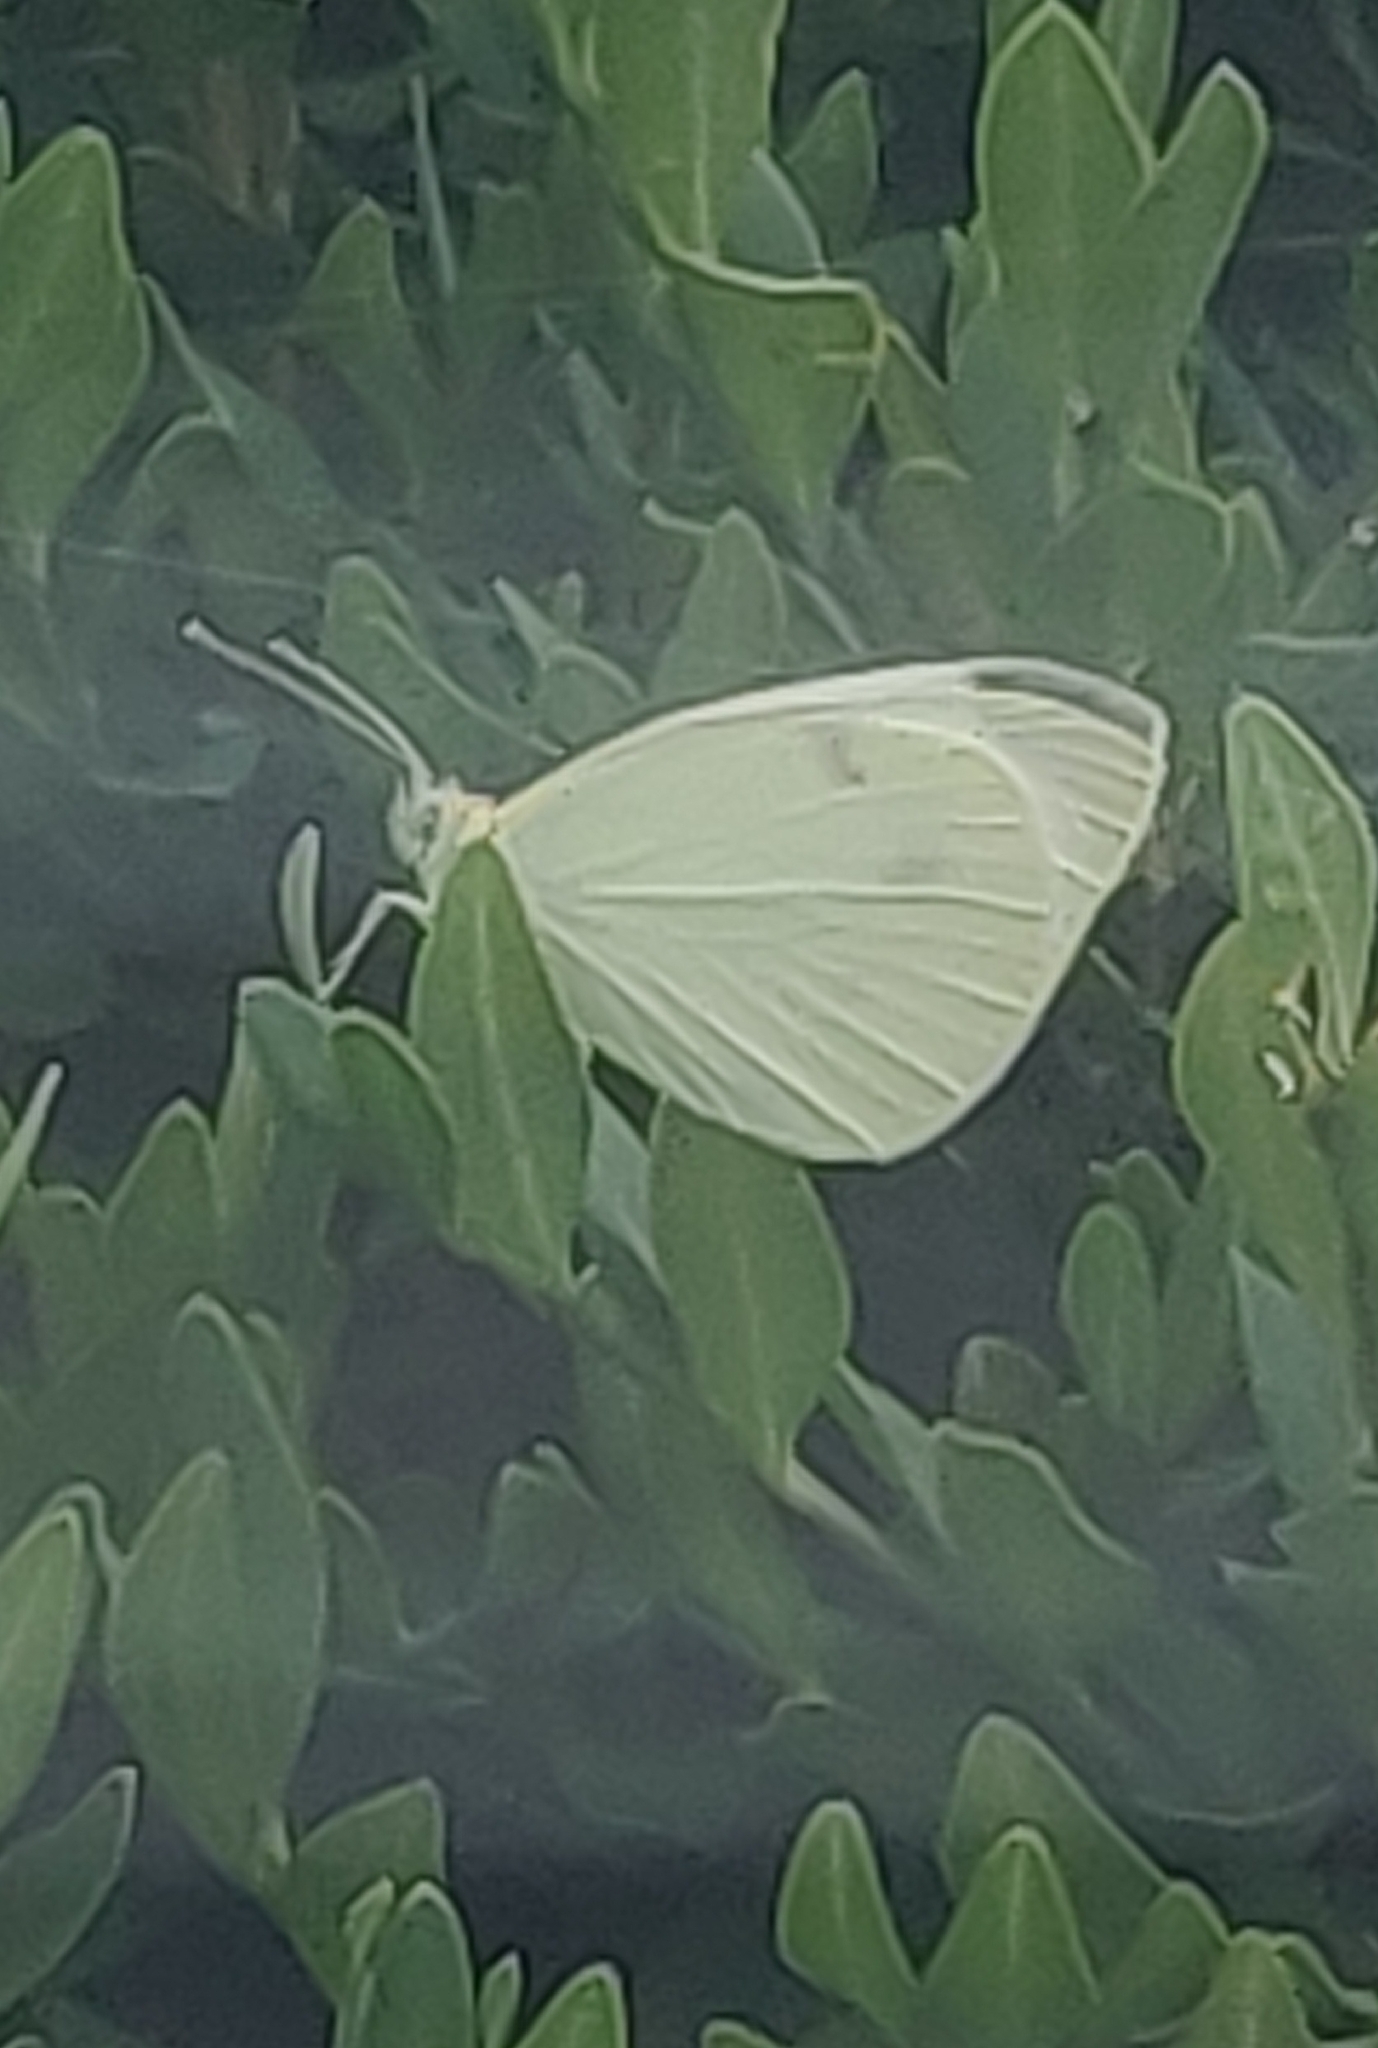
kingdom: Animalia
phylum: Arthropoda
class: Insecta
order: Lepidoptera
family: Pieridae
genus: Pieris
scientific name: Pieris rapae
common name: Small white
